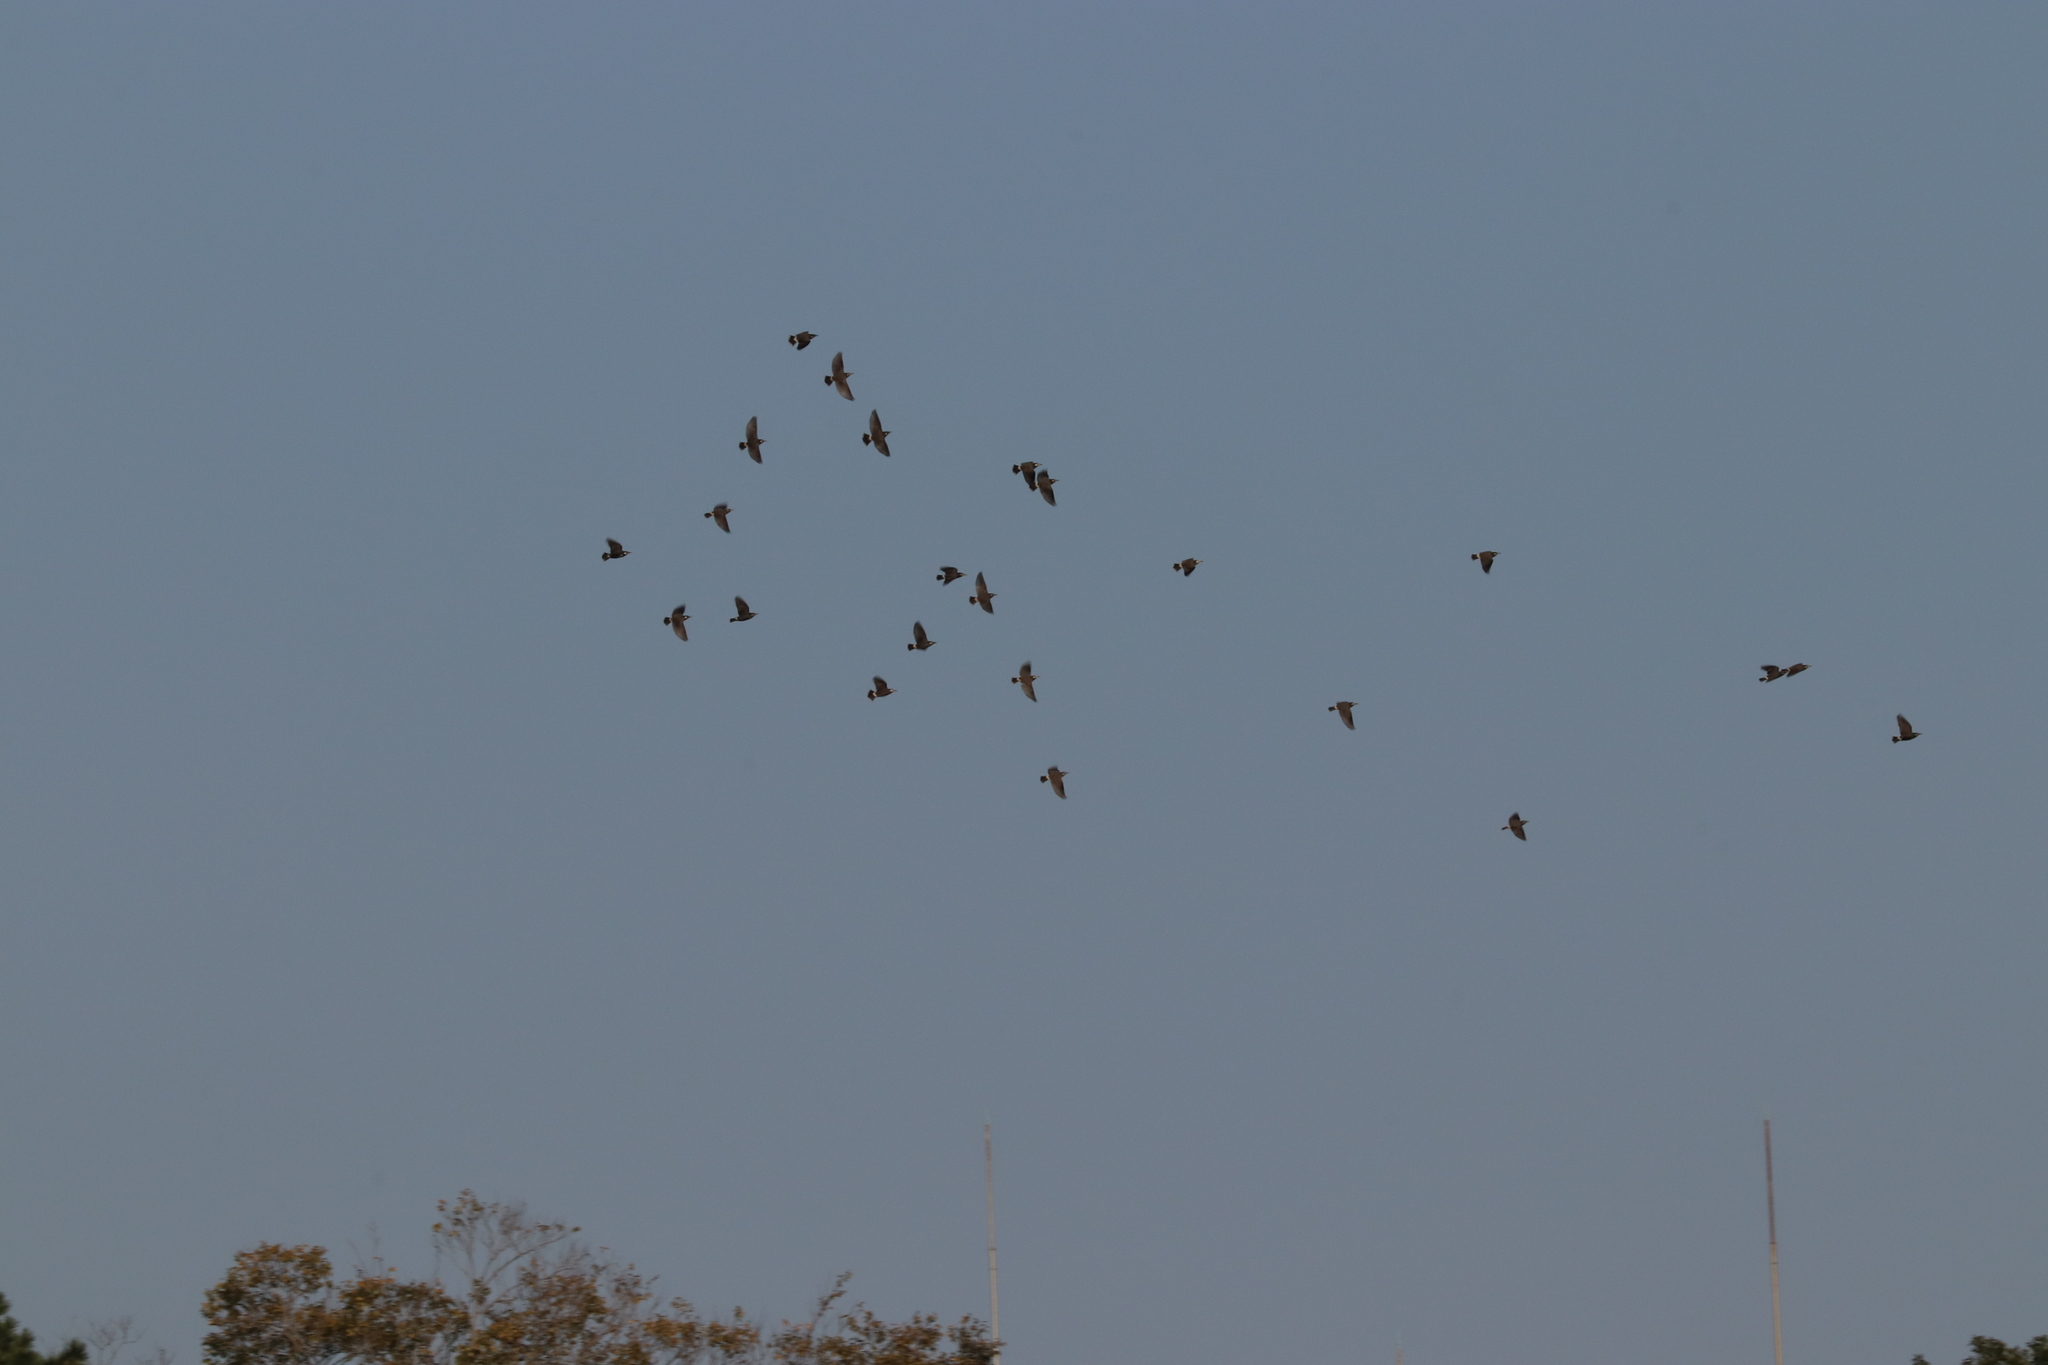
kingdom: Animalia
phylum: Chordata
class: Aves
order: Passeriformes
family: Sturnidae
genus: Spodiopsar
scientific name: Spodiopsar cineraceus
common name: White-cheeked starling
